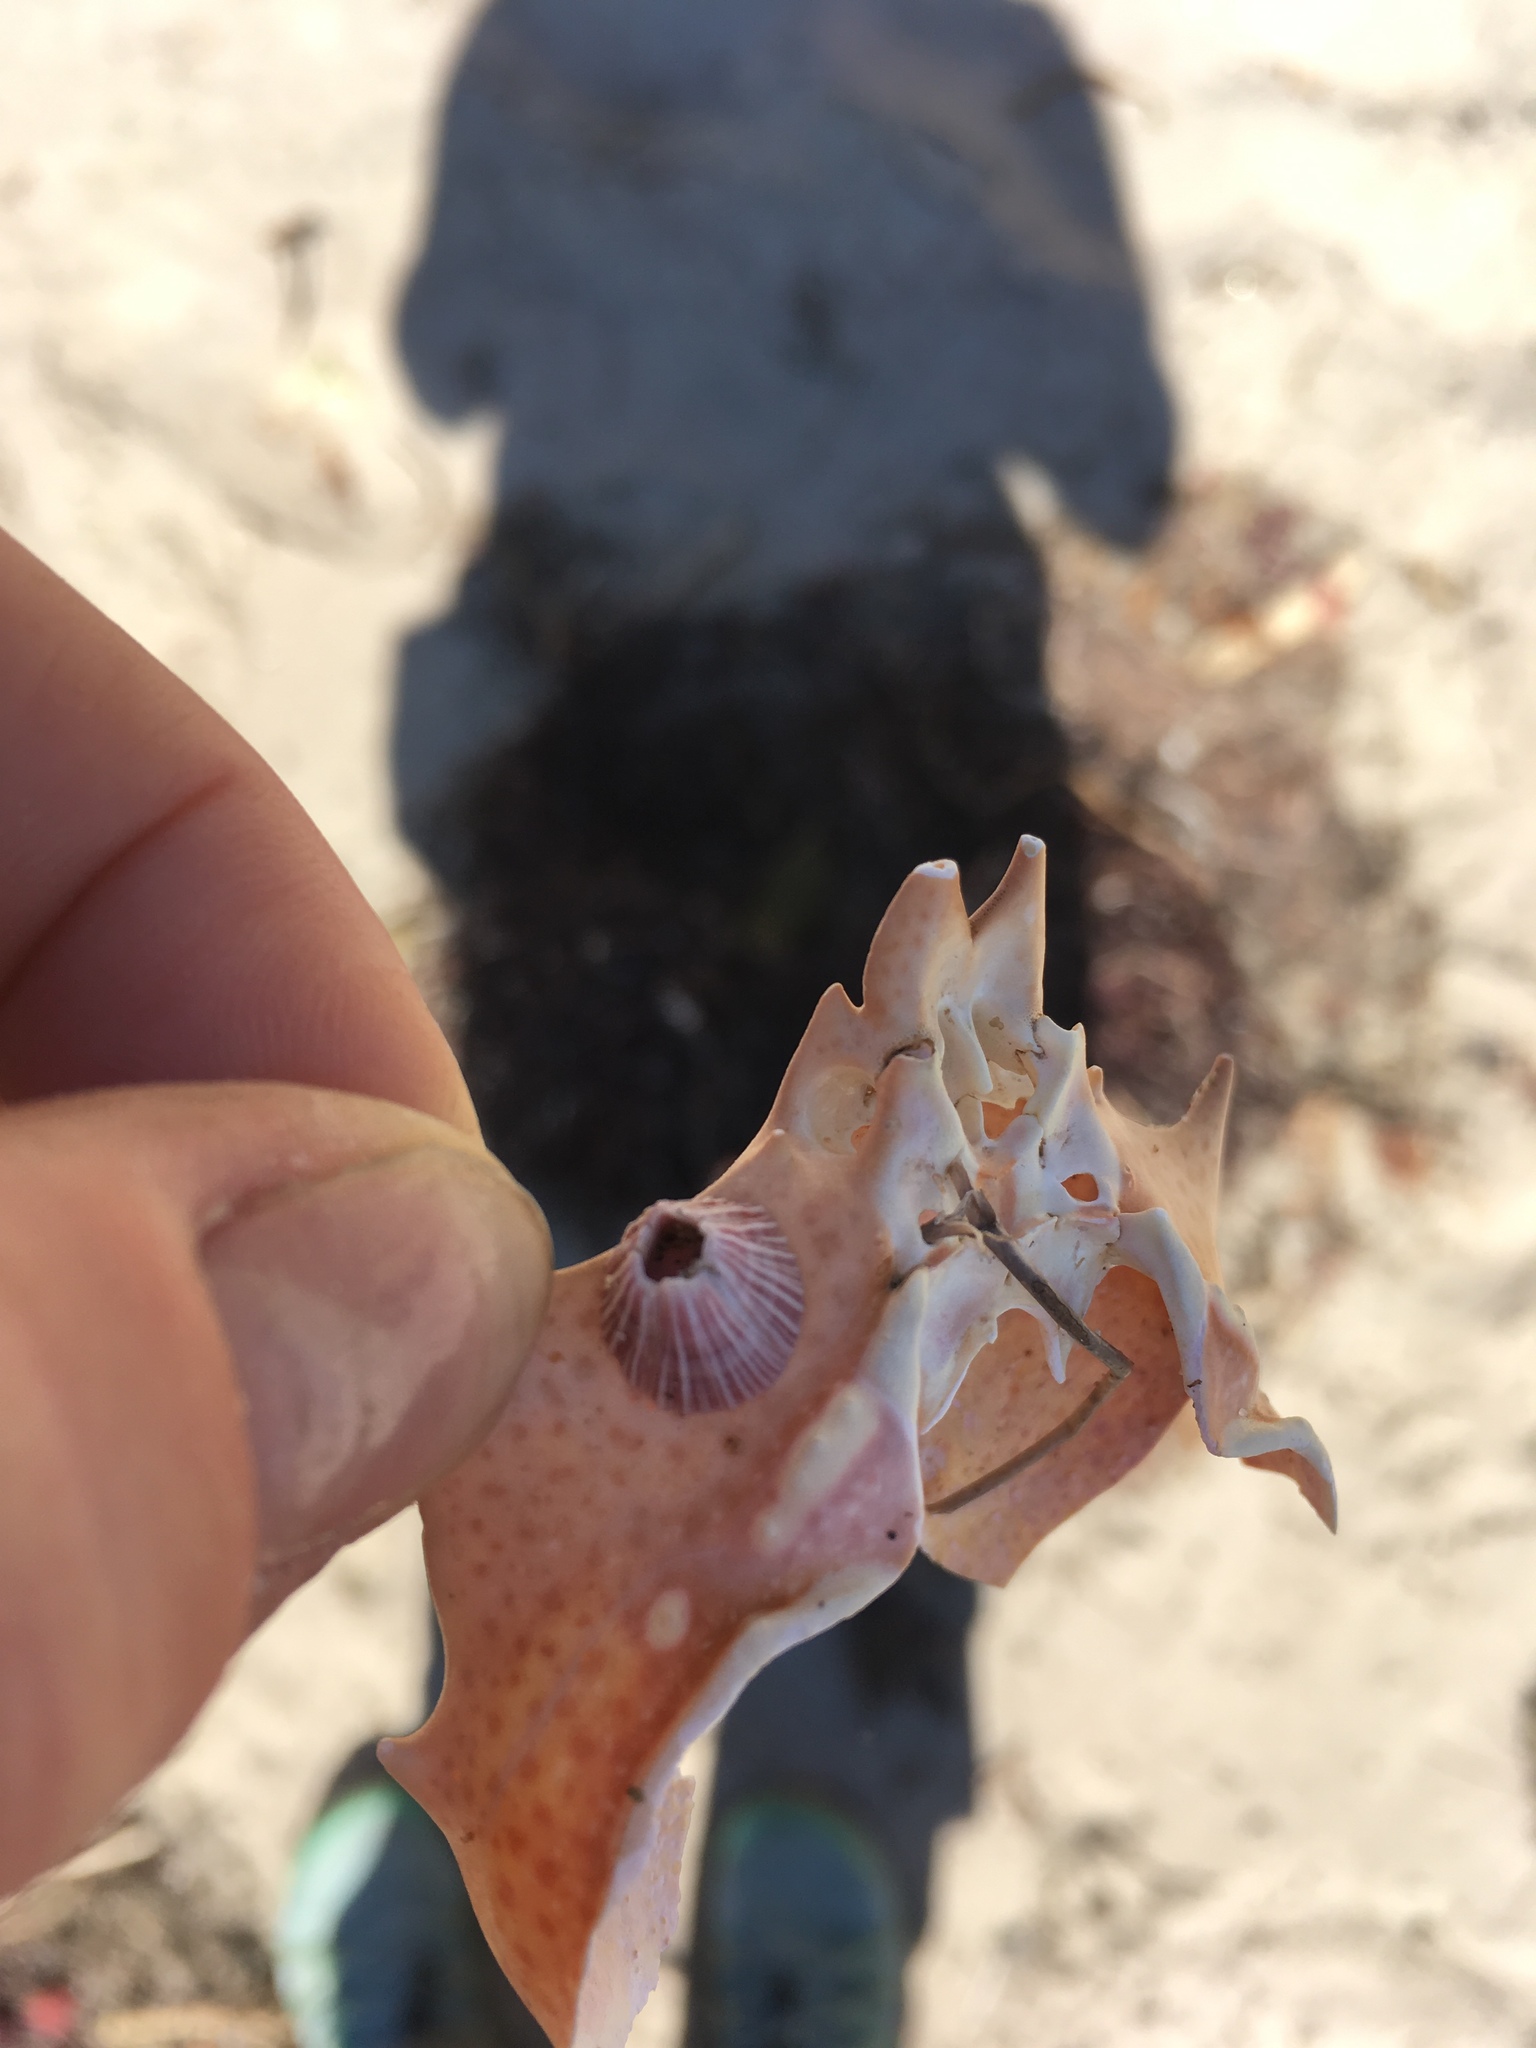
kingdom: Animalia
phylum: Arthropoda
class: Maxillopoda
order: Sessilia
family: Balanidae
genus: Megabalanus
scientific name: Megabalanus californicus
